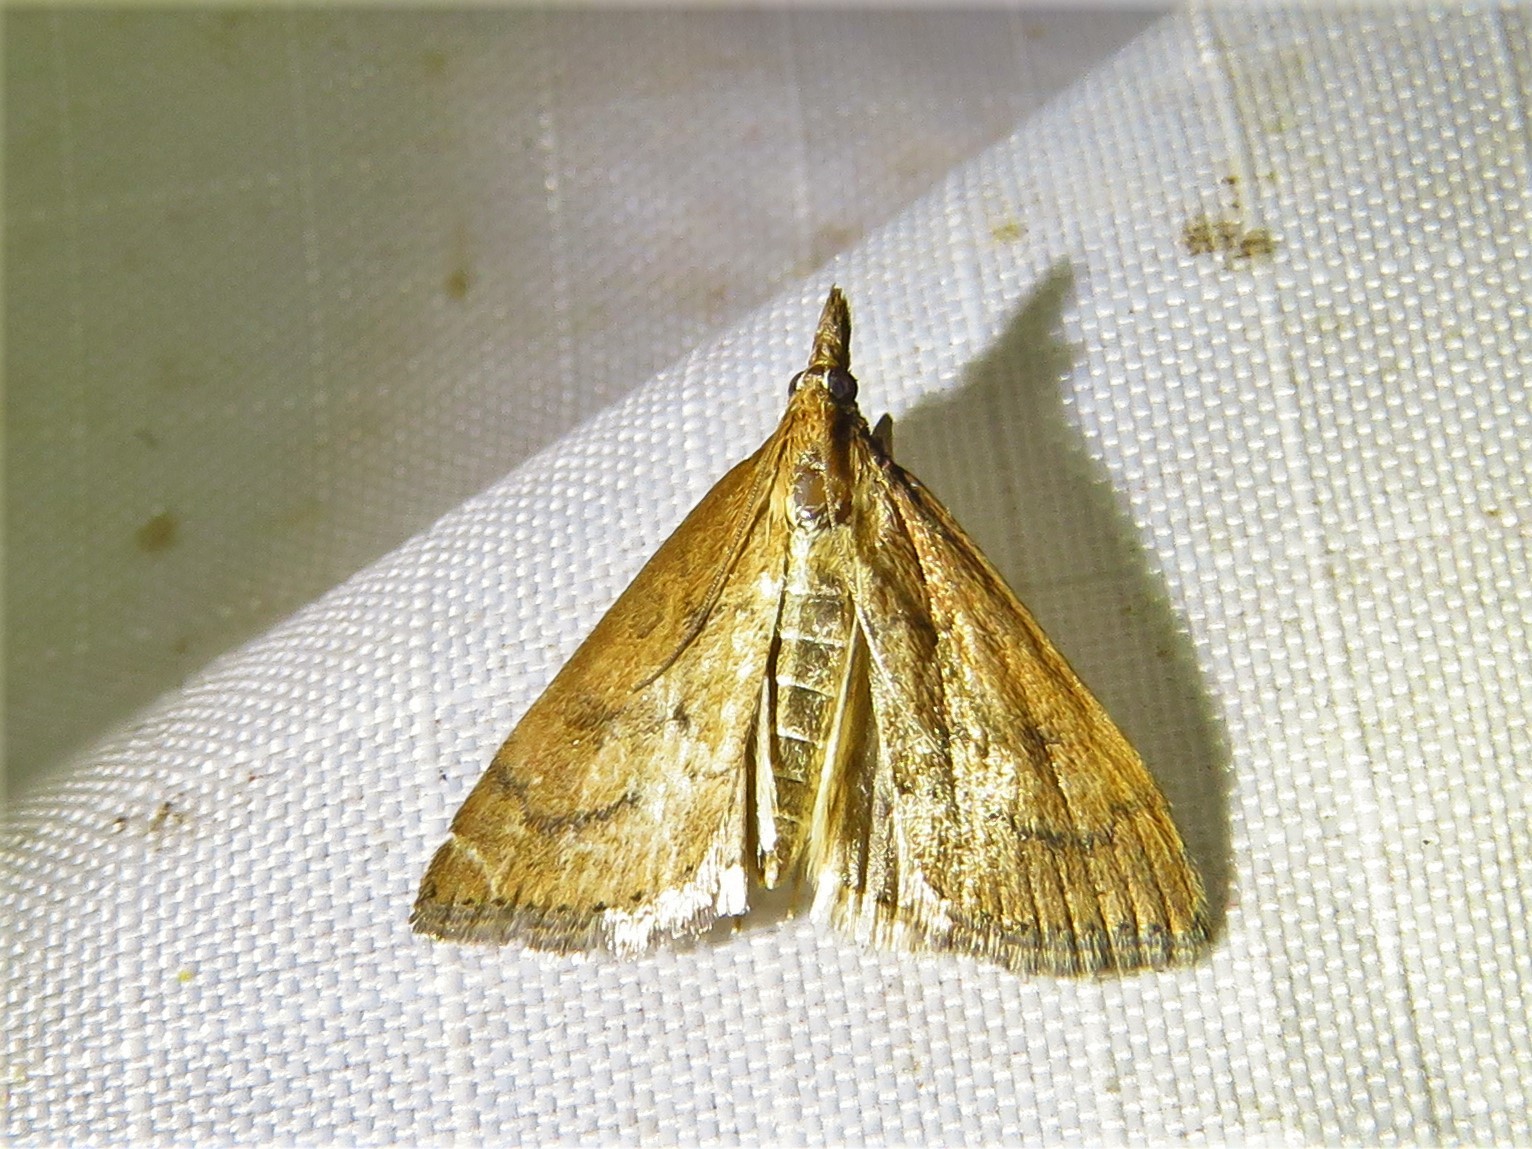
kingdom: Animalia
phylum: Arthropoda
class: Insecta
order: Lepidoptera
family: Crambidae
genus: Udea
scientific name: Udea rubigalis
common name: Celery leaftier moth
